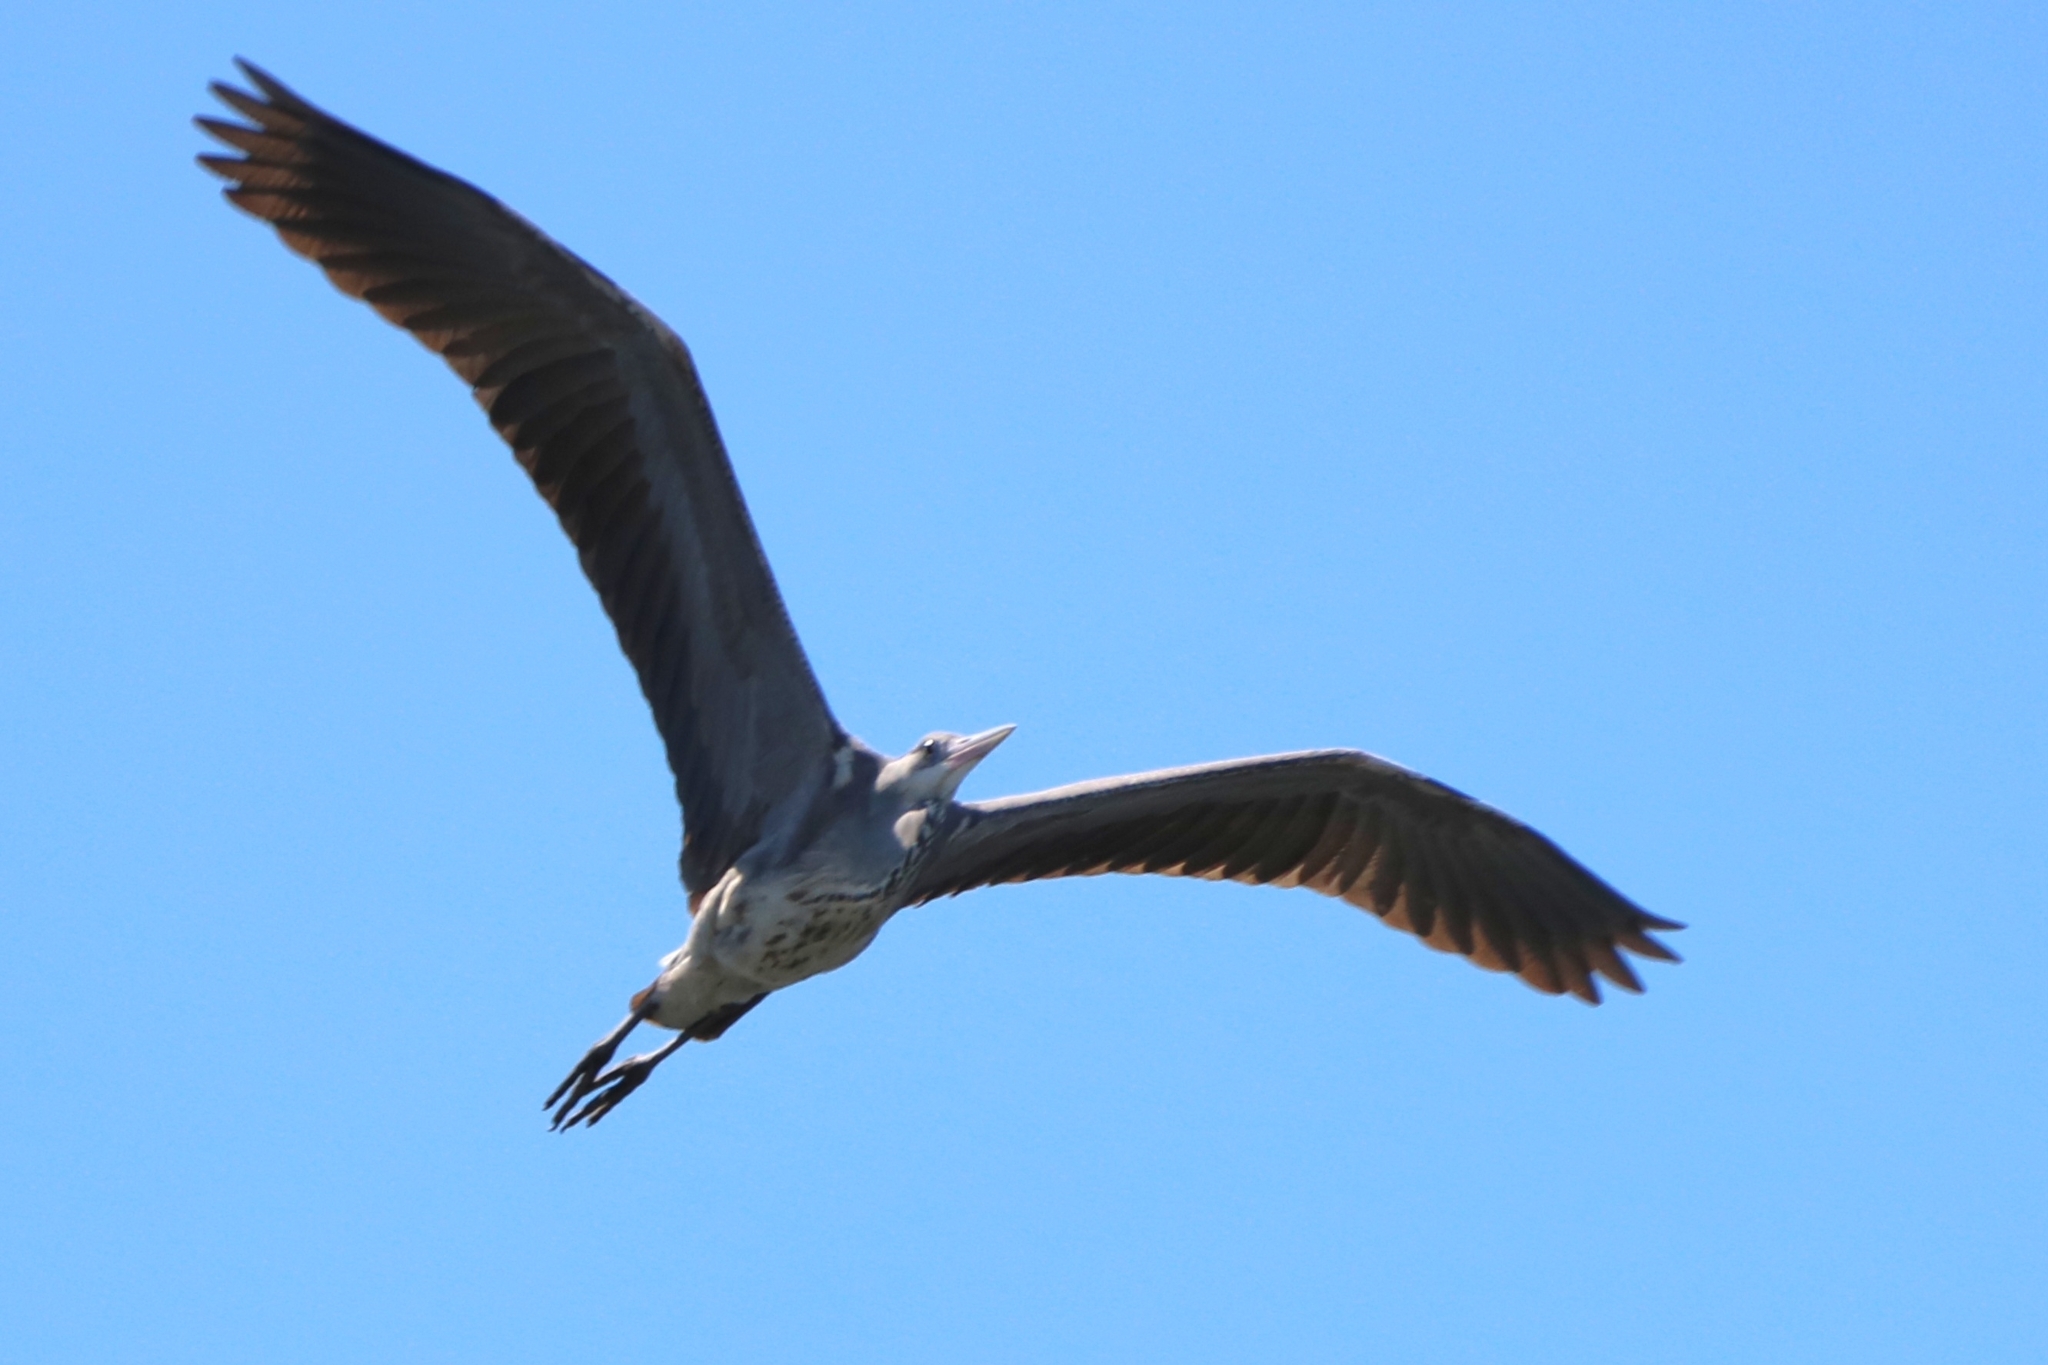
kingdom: Animalia
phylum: Chordata
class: Aves
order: Pelecaniformes
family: Ardeidae
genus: Ardea
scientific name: Ardea cinerea
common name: Grey heron
